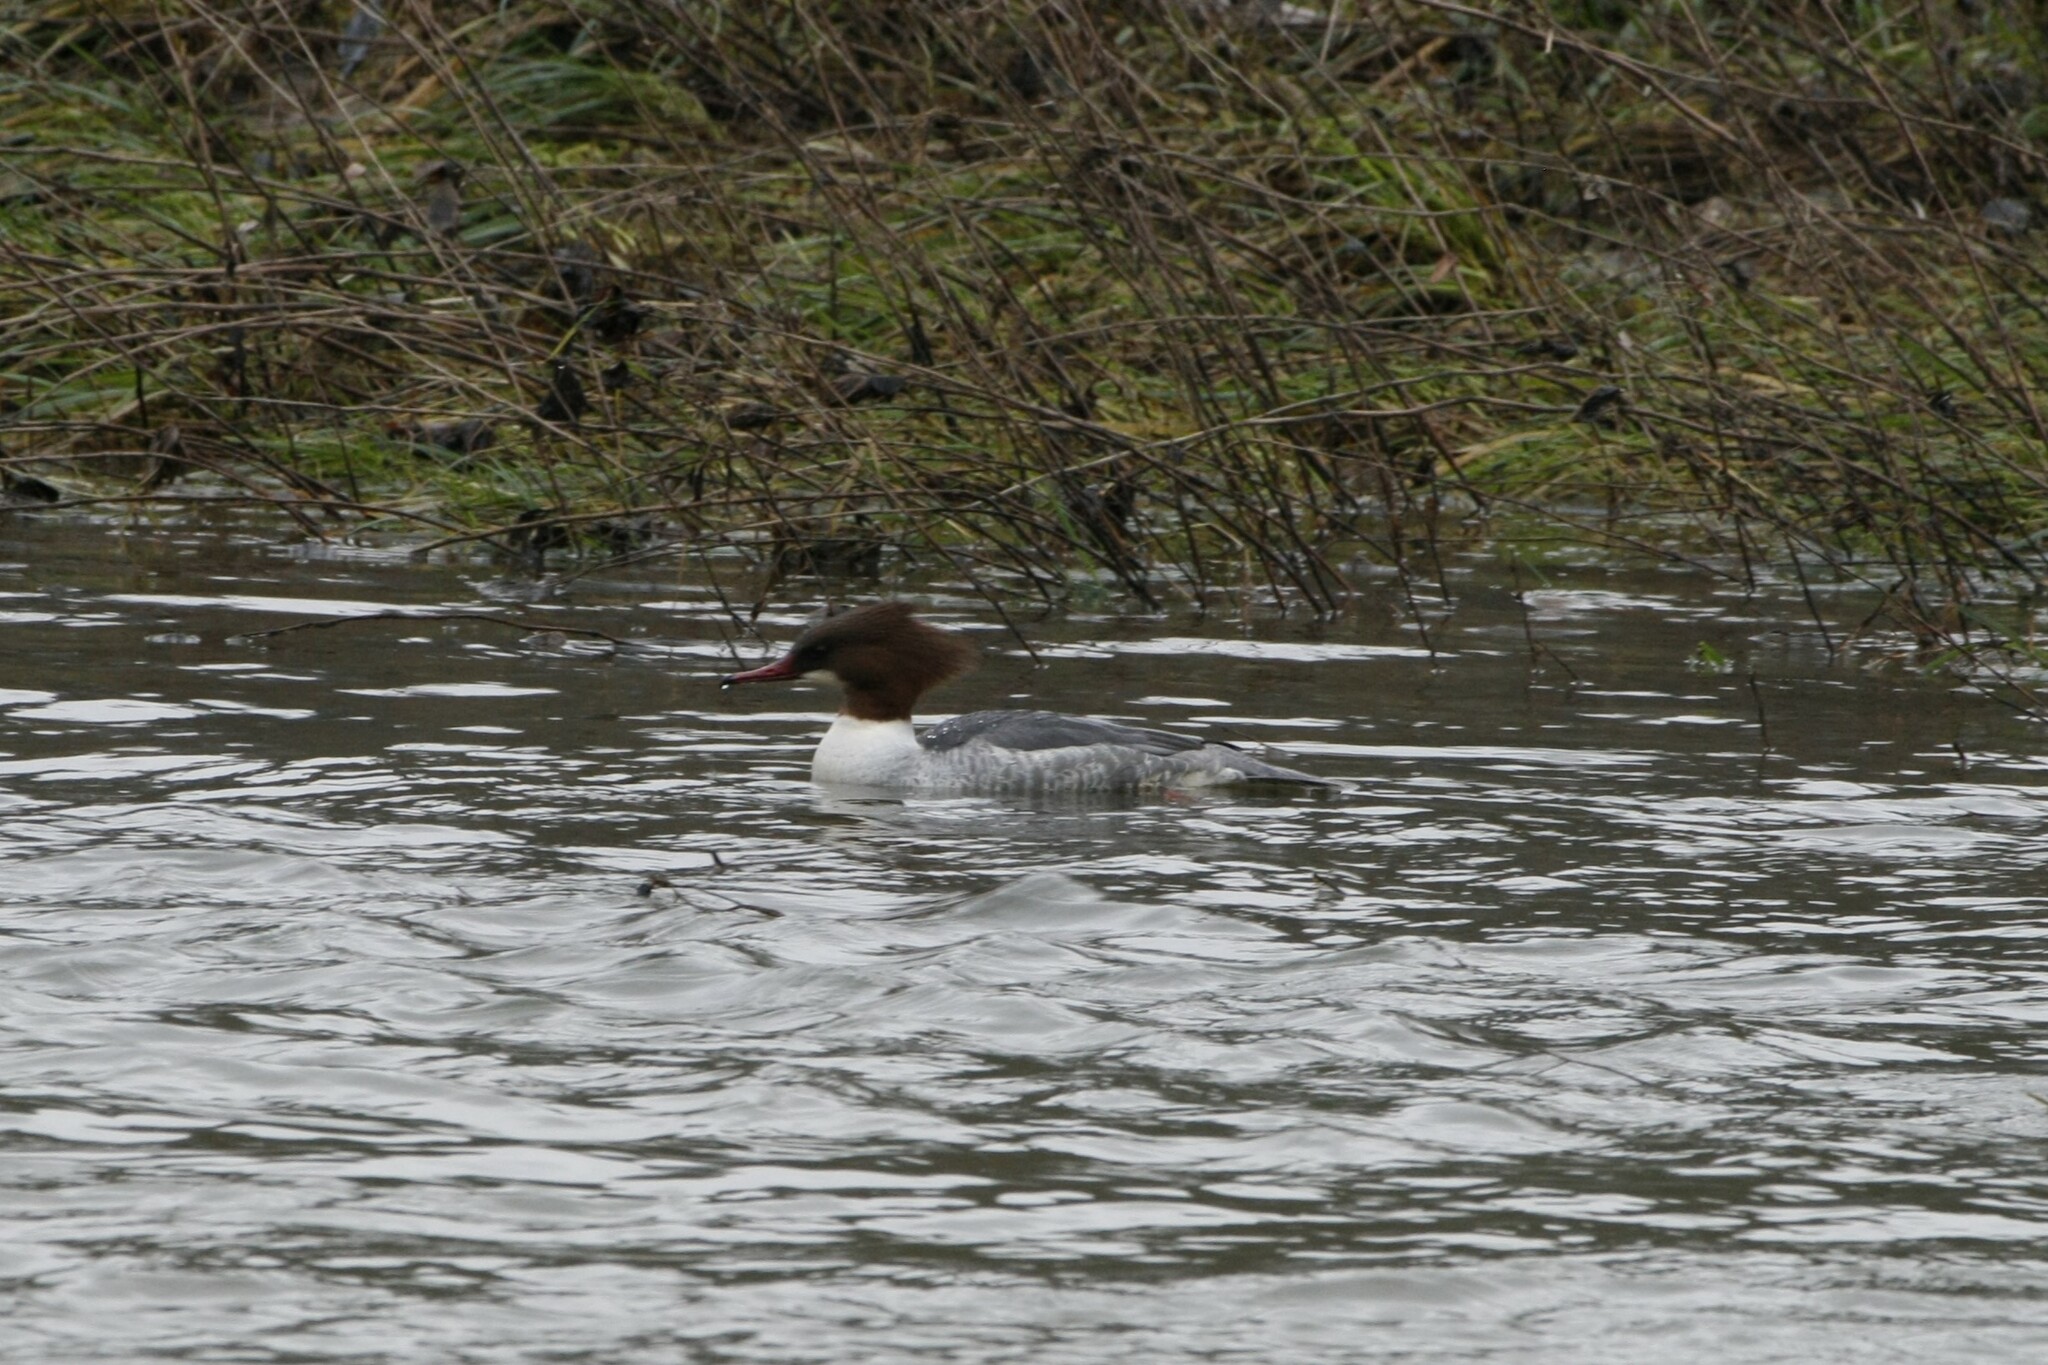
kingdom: Animalia
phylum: Chordata
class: Aves
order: Anseriformes
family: Anatidae
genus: Mergus
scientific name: Mergus merganser
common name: Common merganser
